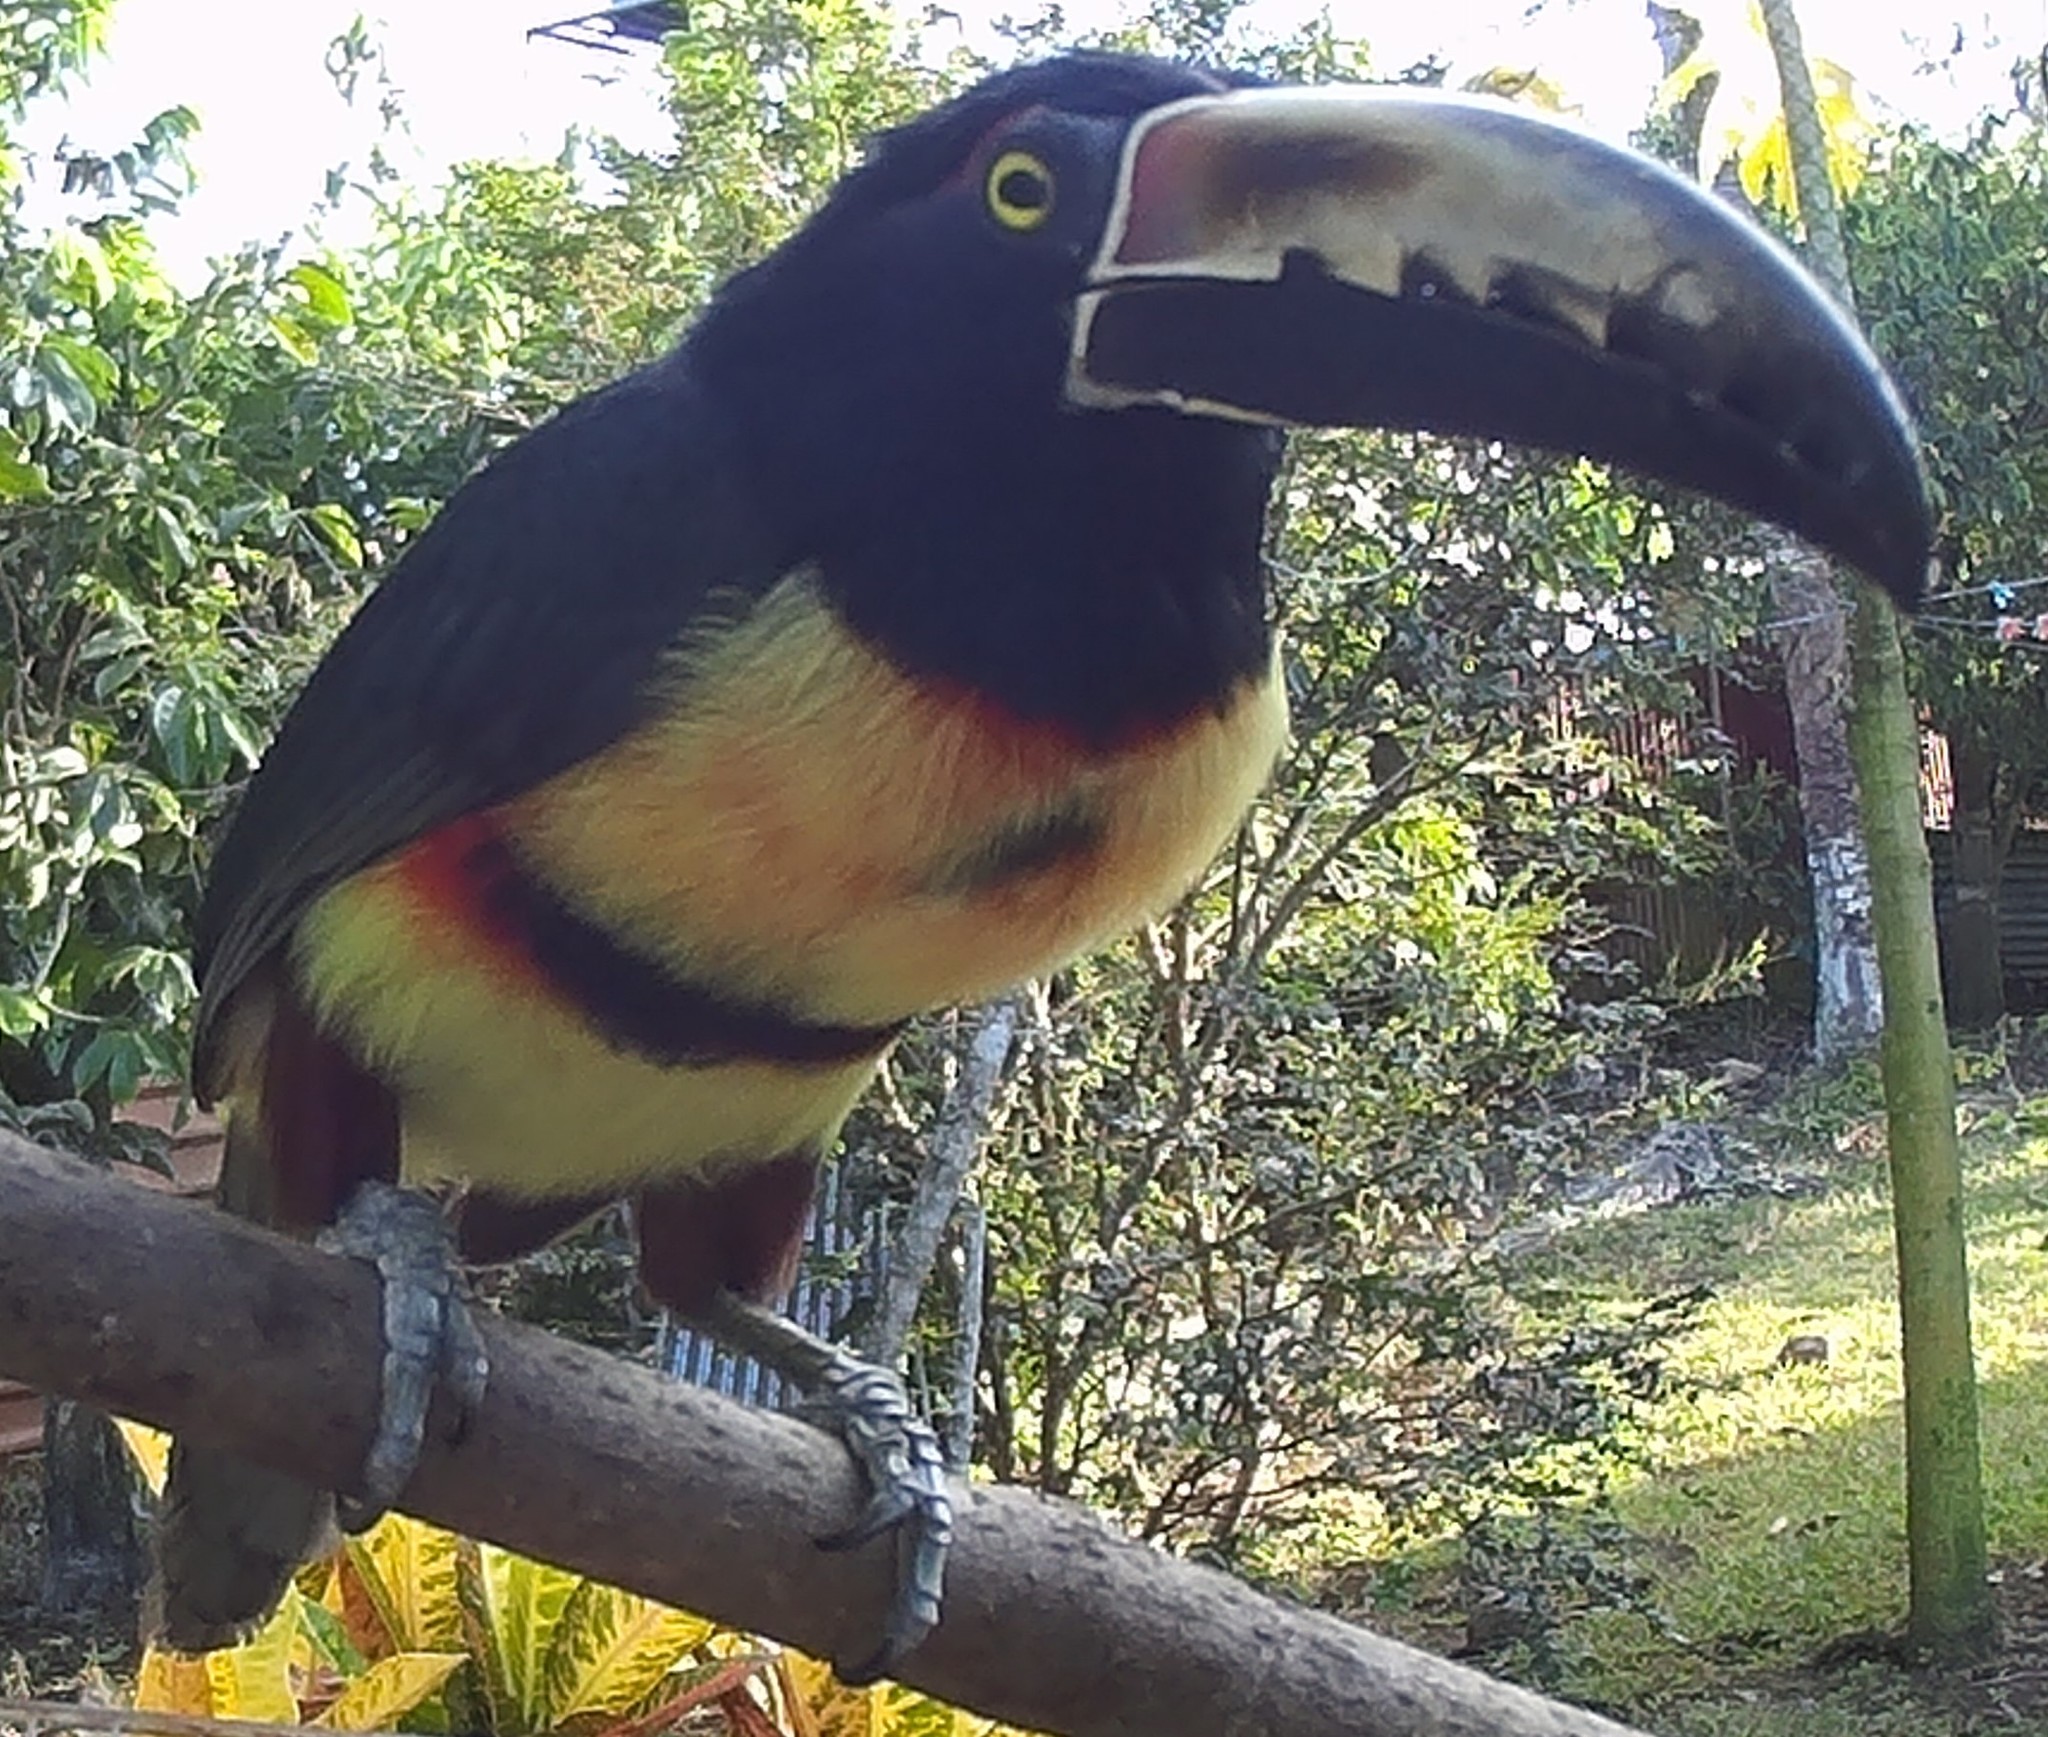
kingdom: Animalia
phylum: Chordata
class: Aves
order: Piciformes
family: Ramphastidae
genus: Pteroglossus
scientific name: Pteroglossus torquatus
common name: Collared aracari
